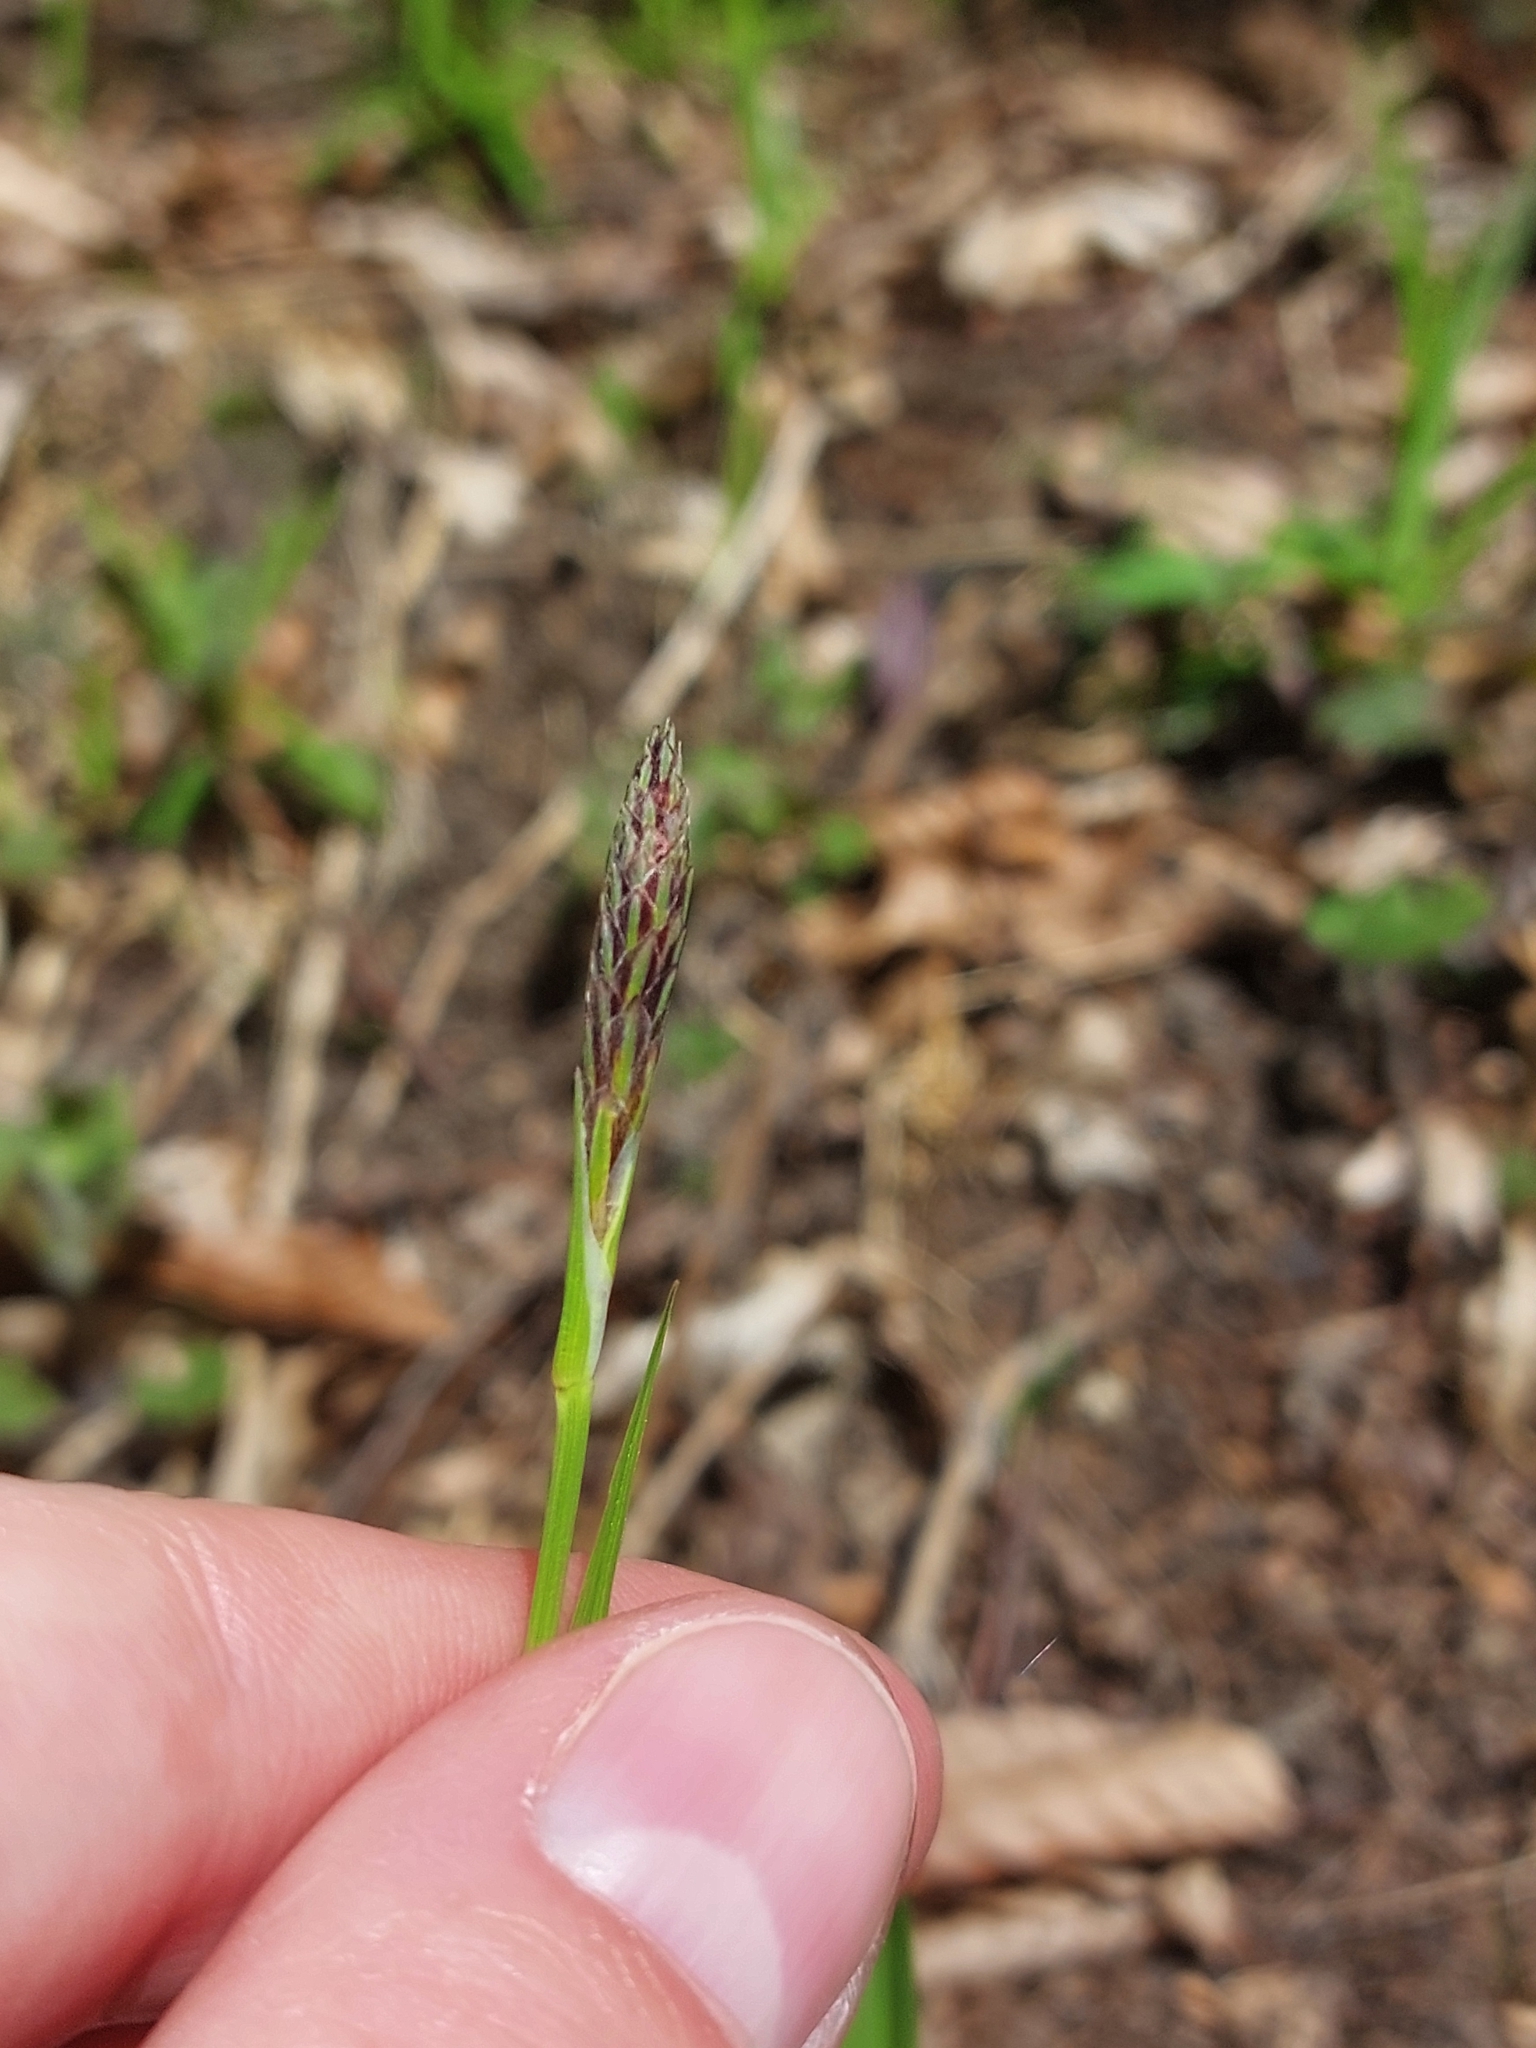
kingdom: Plantae
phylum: Tracheophyta
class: Liliopsida
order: Poales
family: Cyperaceae
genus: Carex
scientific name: Carex pilosa
